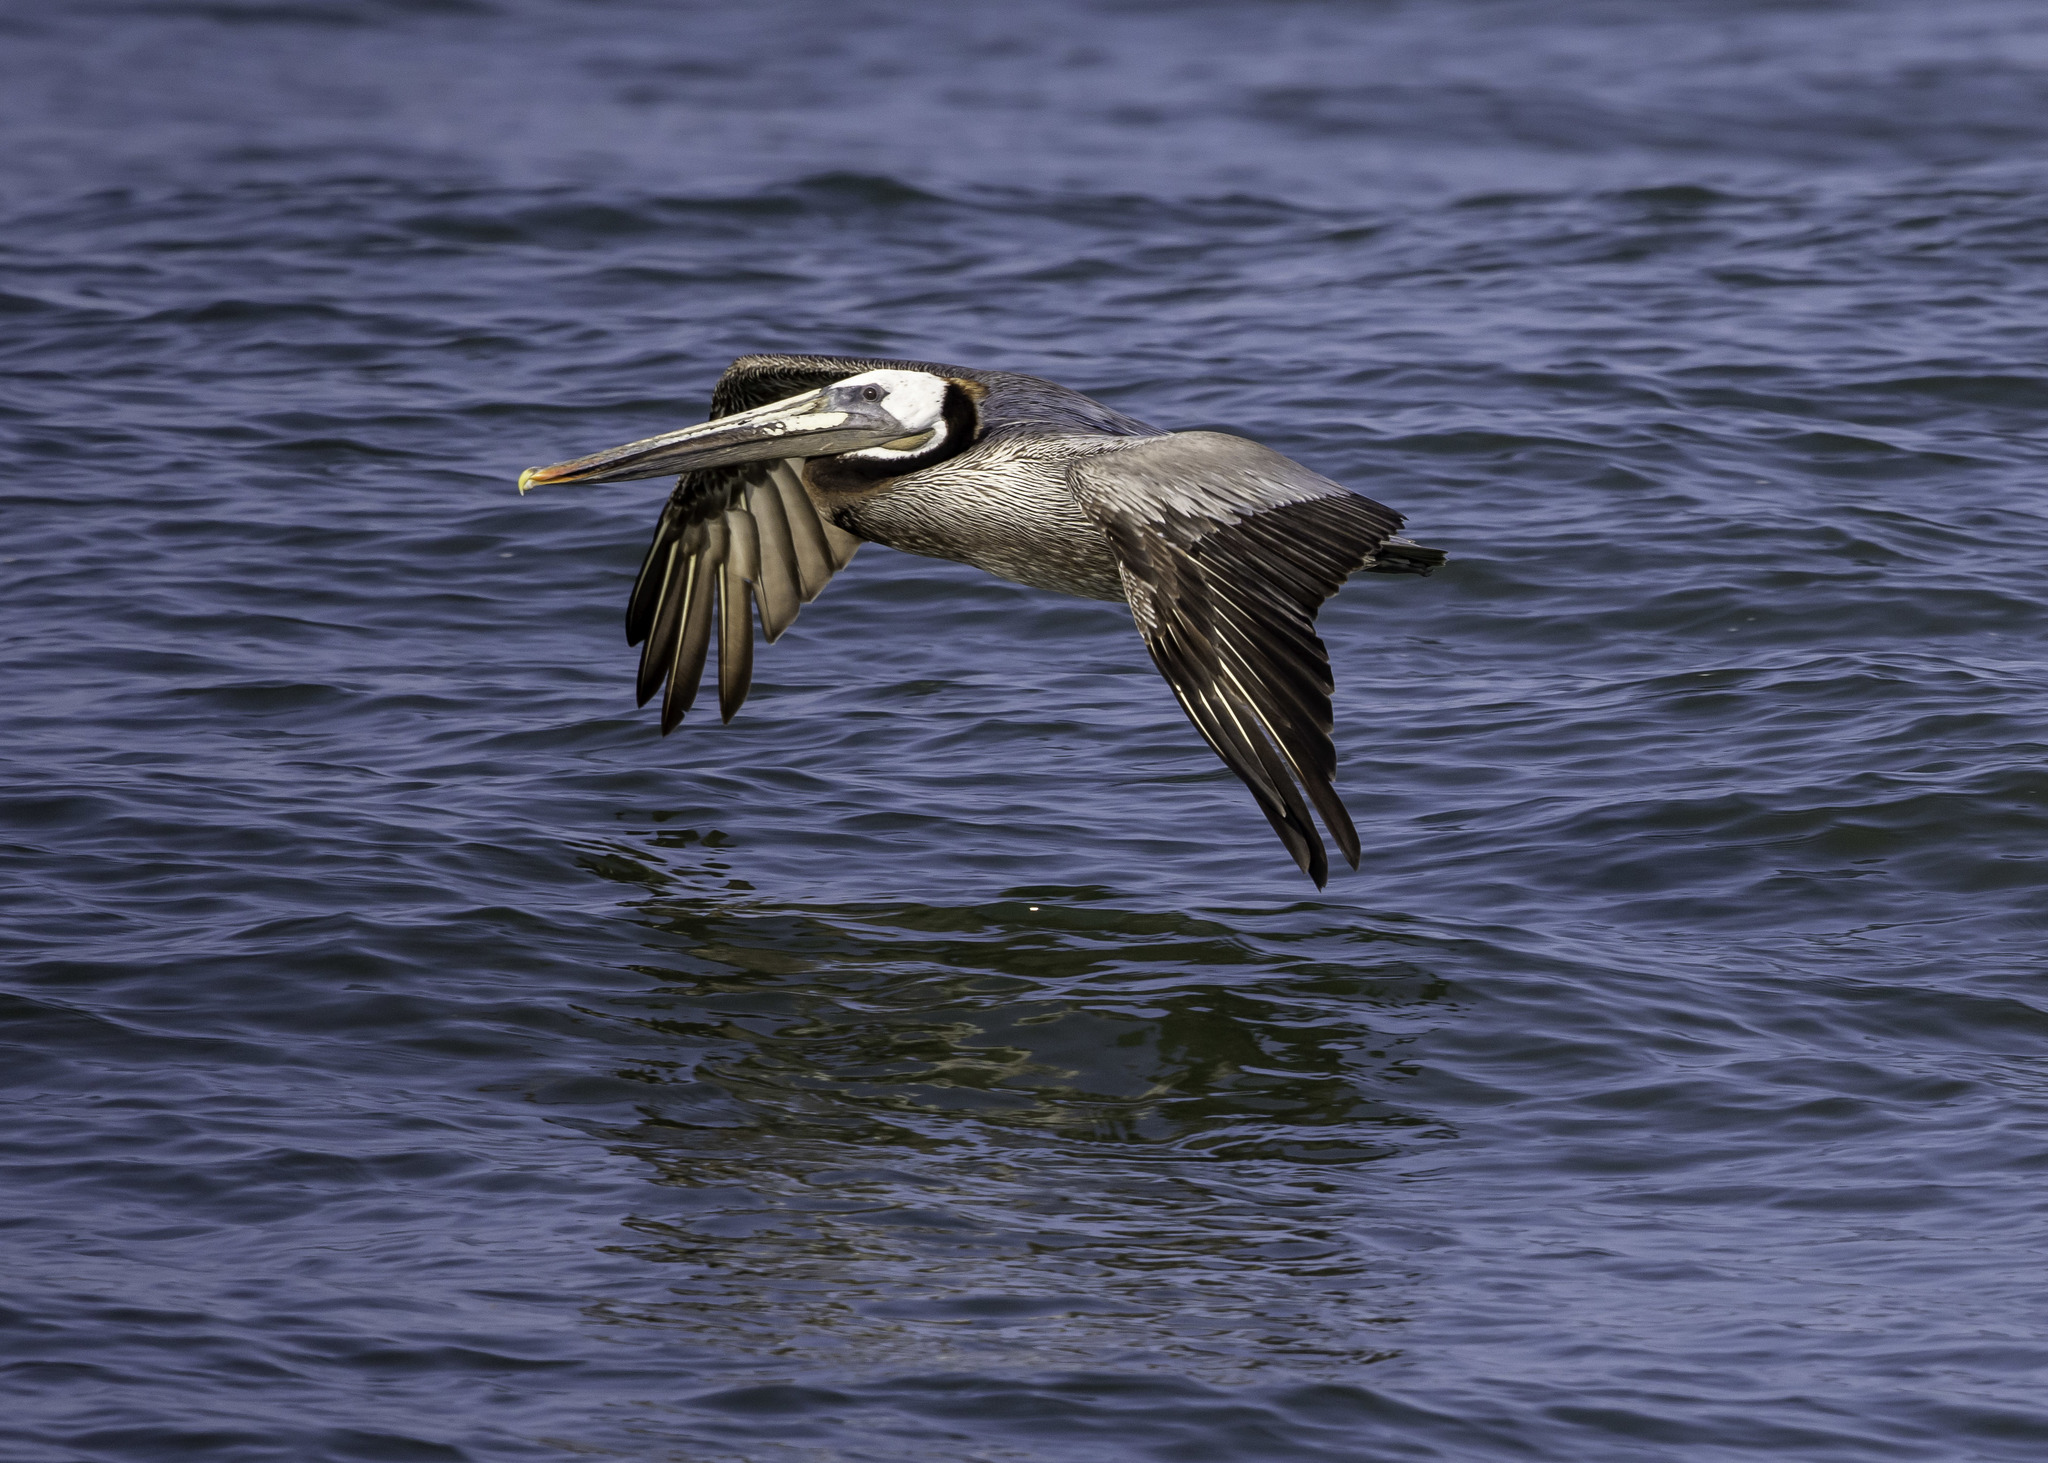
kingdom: Animalia
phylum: Chordata
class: Aves
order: Pelecaniformes
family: Pelecanidae
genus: Pelecanus
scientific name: Pelecanus occidentalis
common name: Brown pelican
